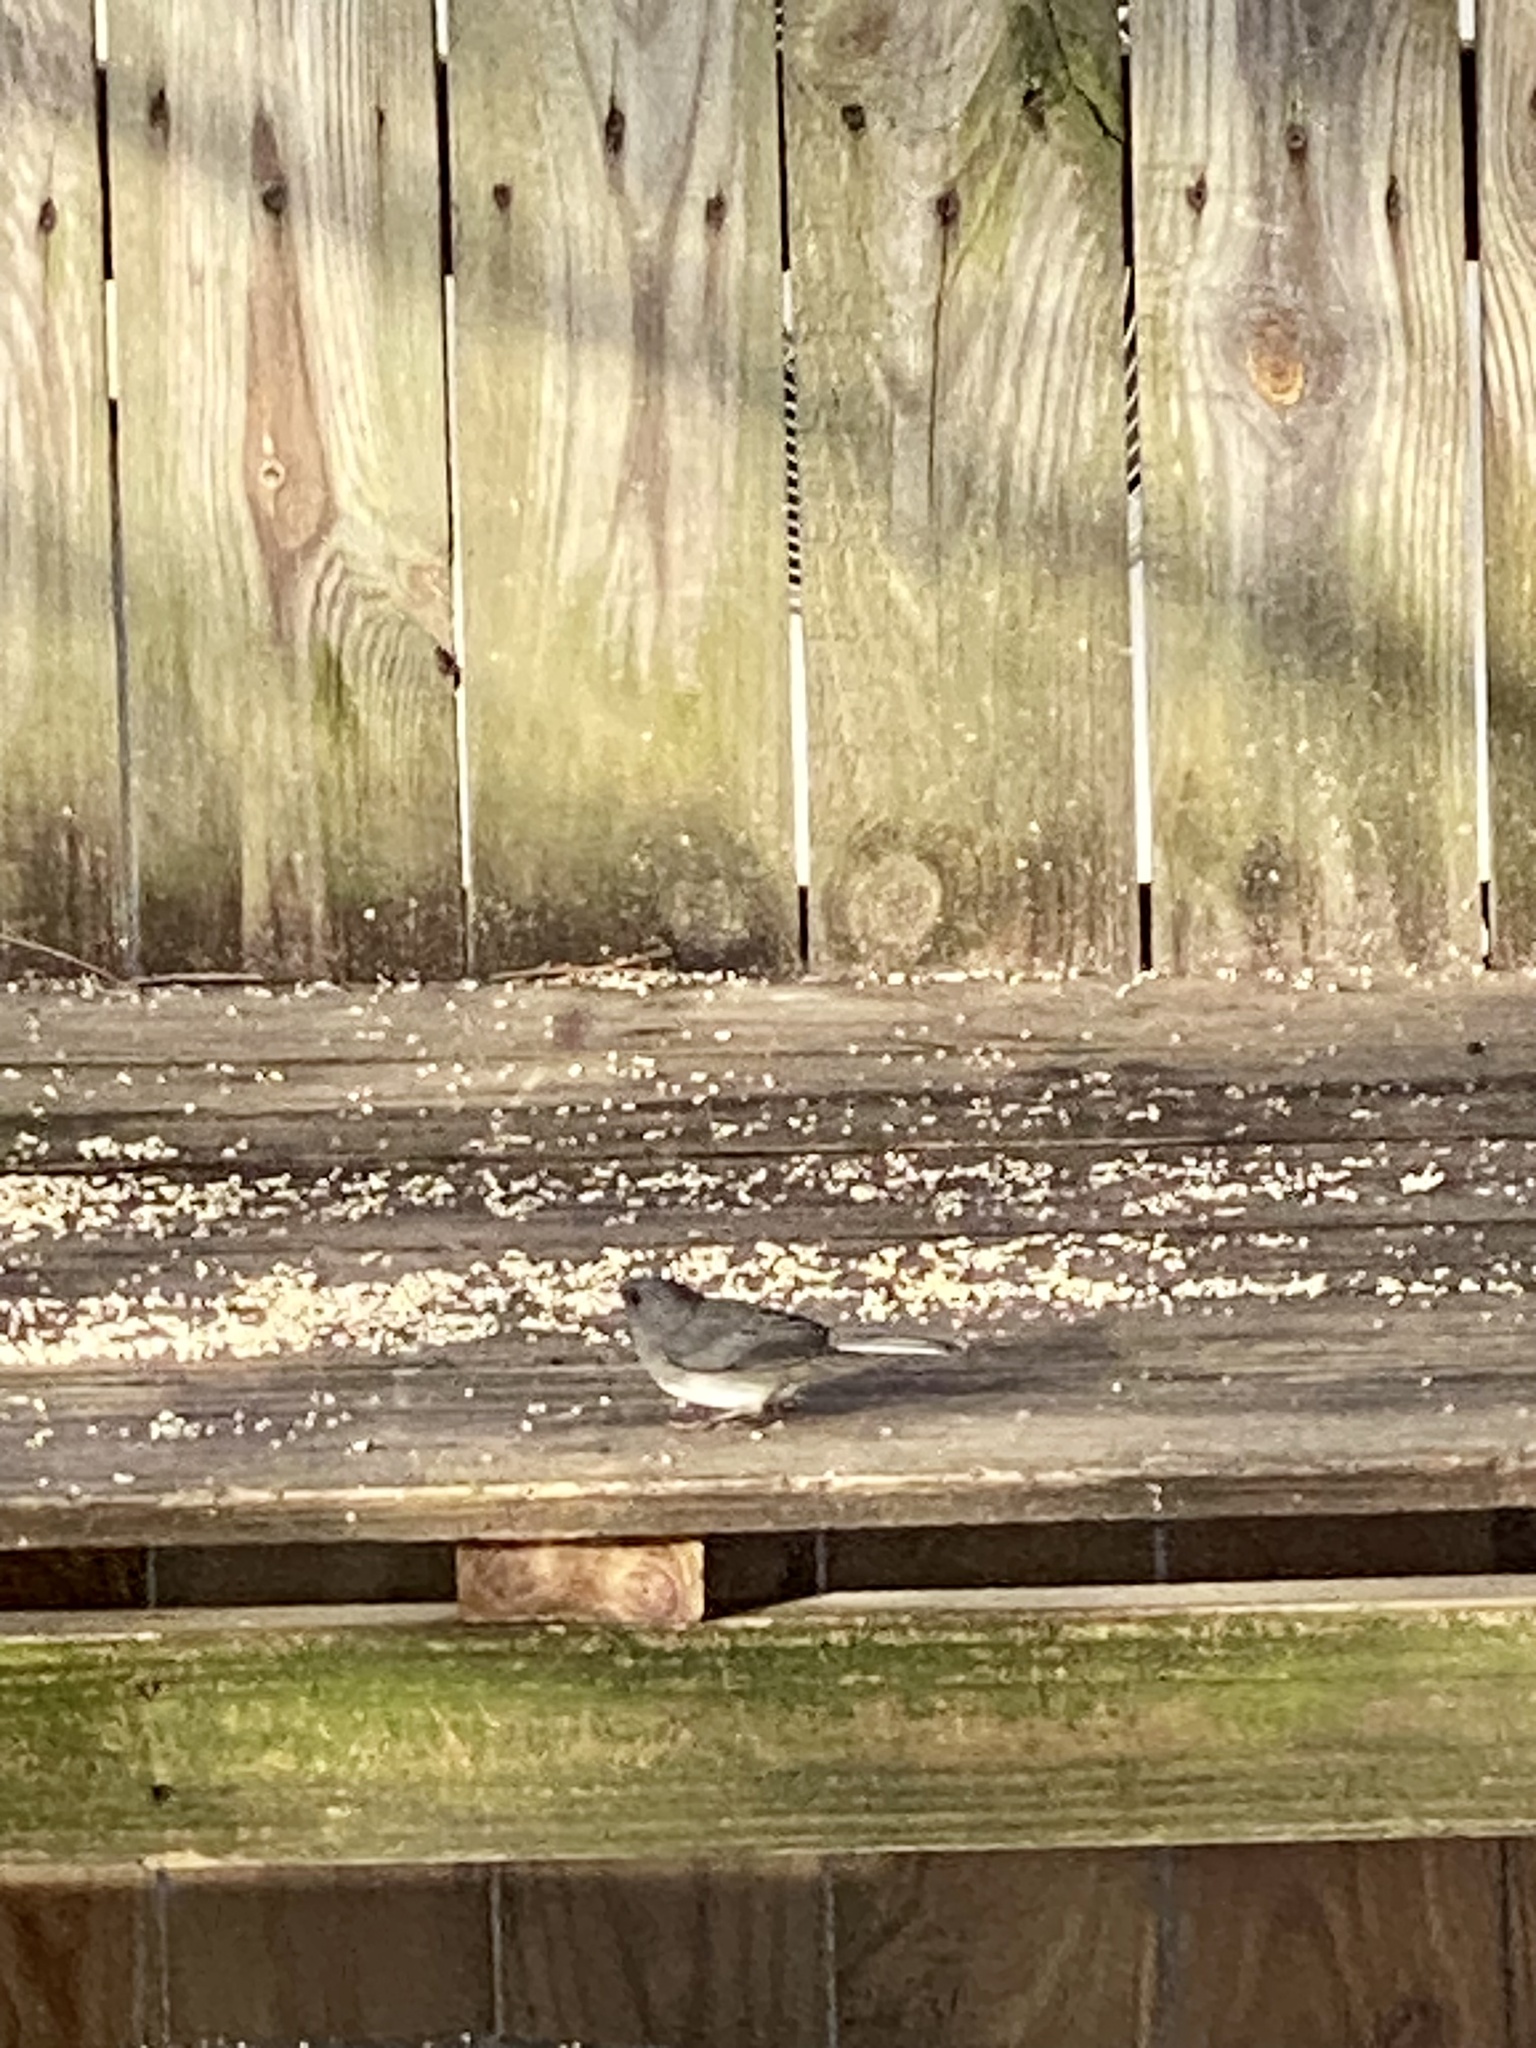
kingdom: Animalia
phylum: Chordata
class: Aves
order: Passeriformes
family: Passerellidae
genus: Junco
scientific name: Junco hyemalis
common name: Dark-eyed junco
